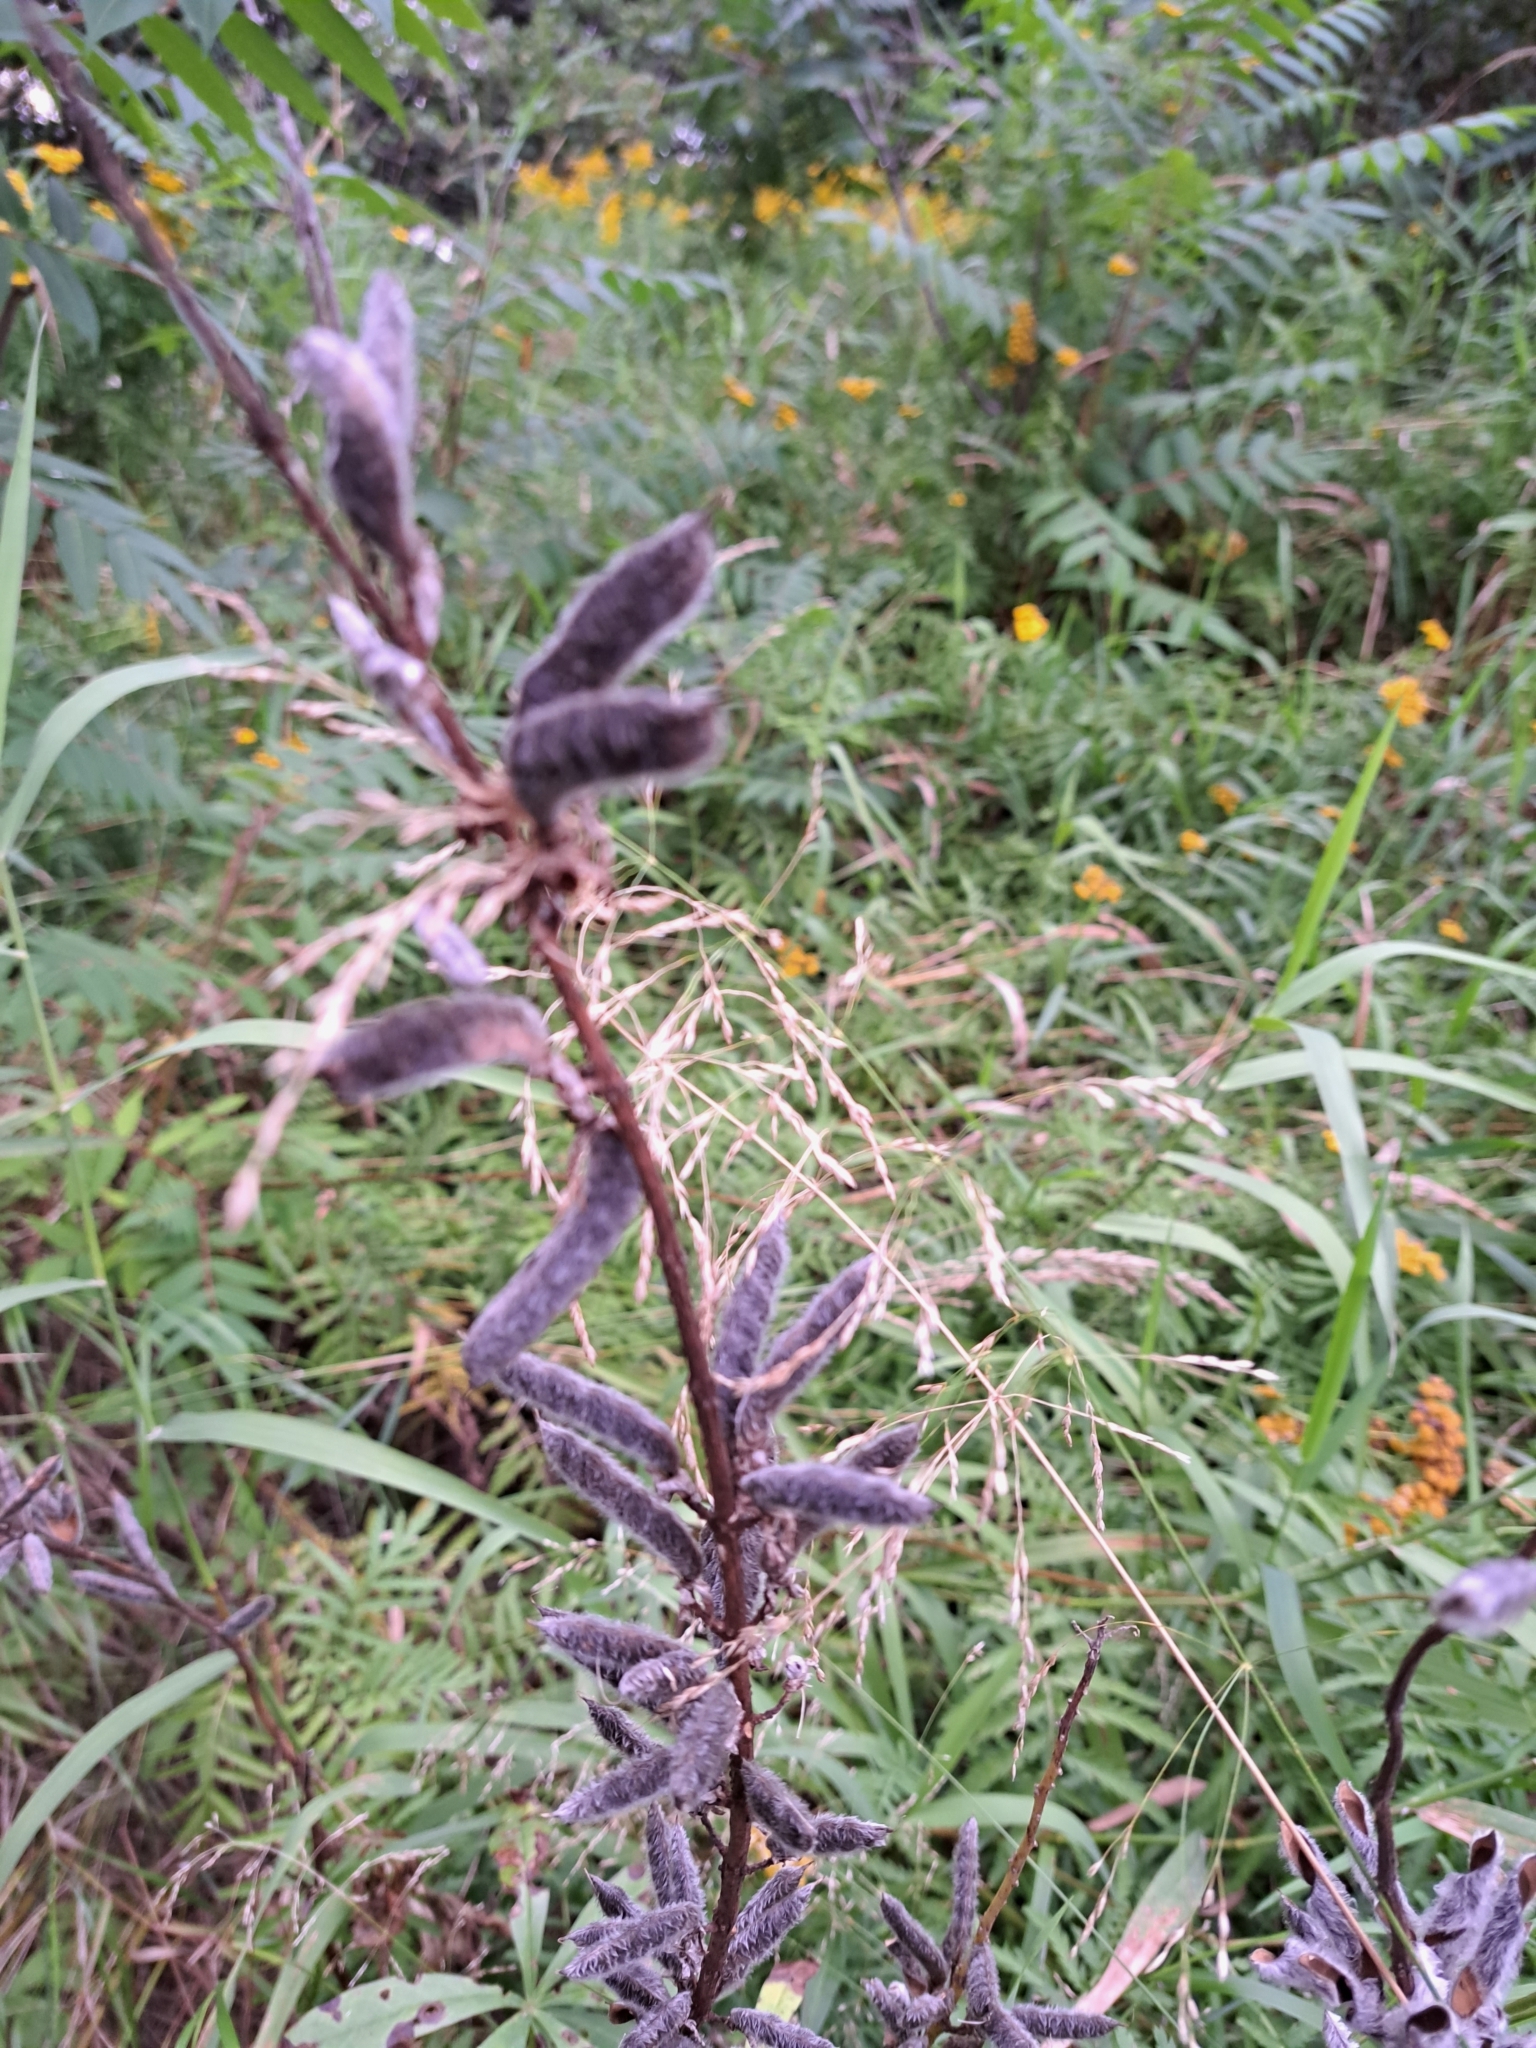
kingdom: Plantae
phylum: Tracheophyta
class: Magnoliopsida
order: Fabales
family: Fabaceae
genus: Lupinus
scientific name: Lupinus polyphyllus
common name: Garden lupin
